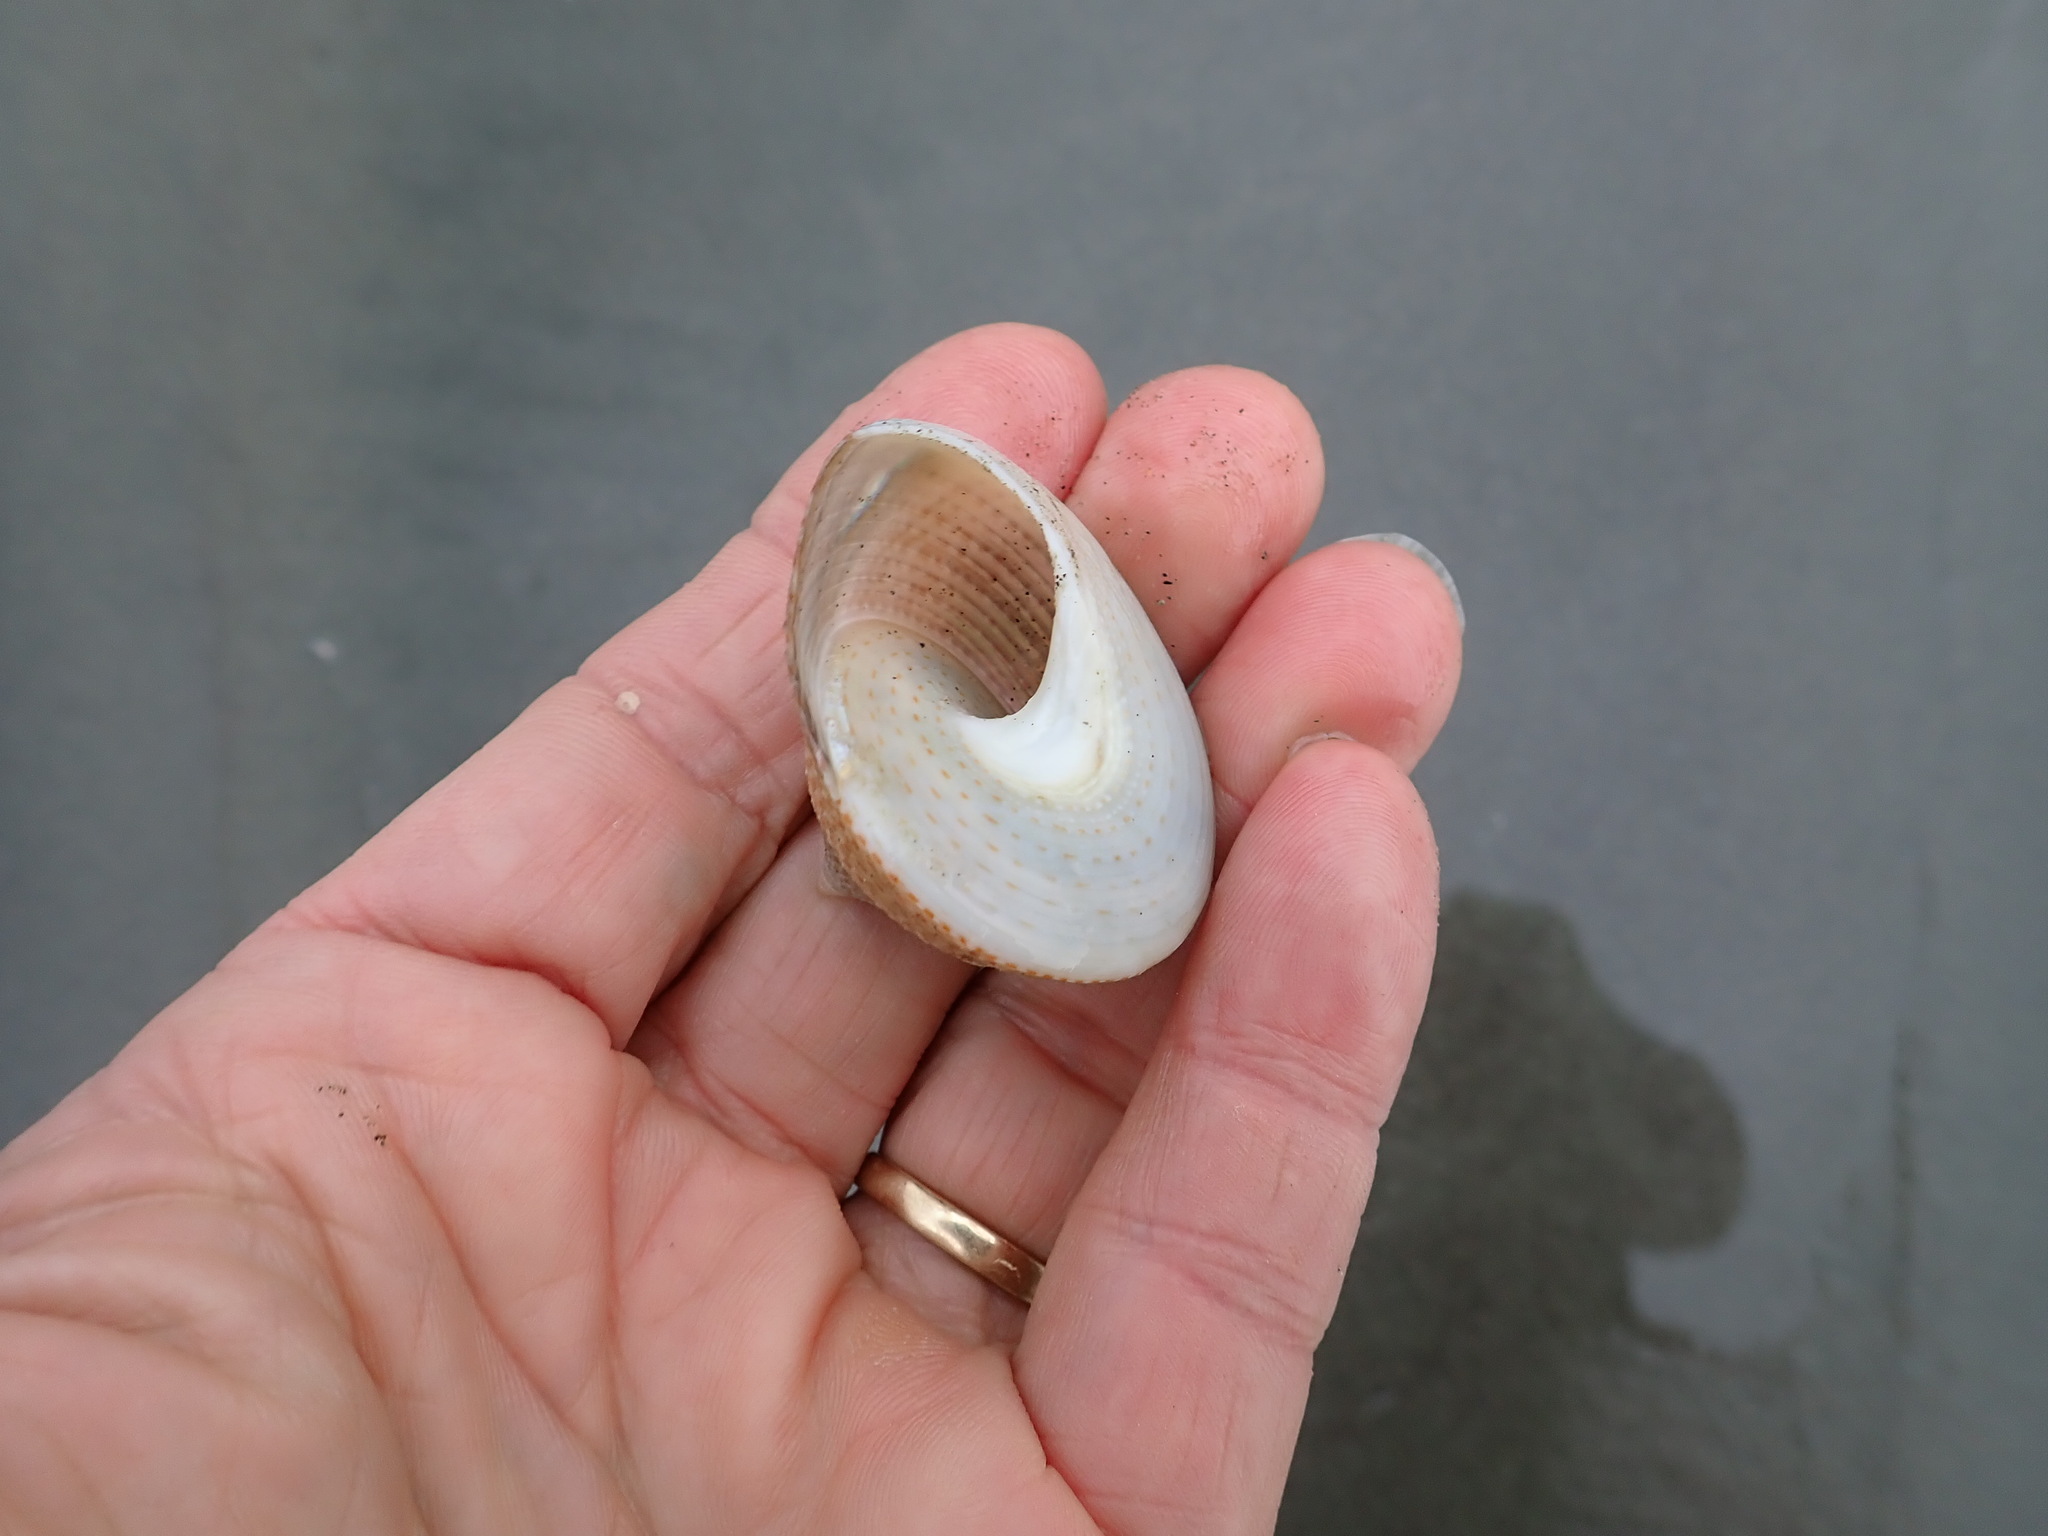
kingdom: Animalia
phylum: Mollusca
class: Gastropoda
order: Trochida
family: Calliostomatidae
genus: Maurea
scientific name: Maurea selecta
